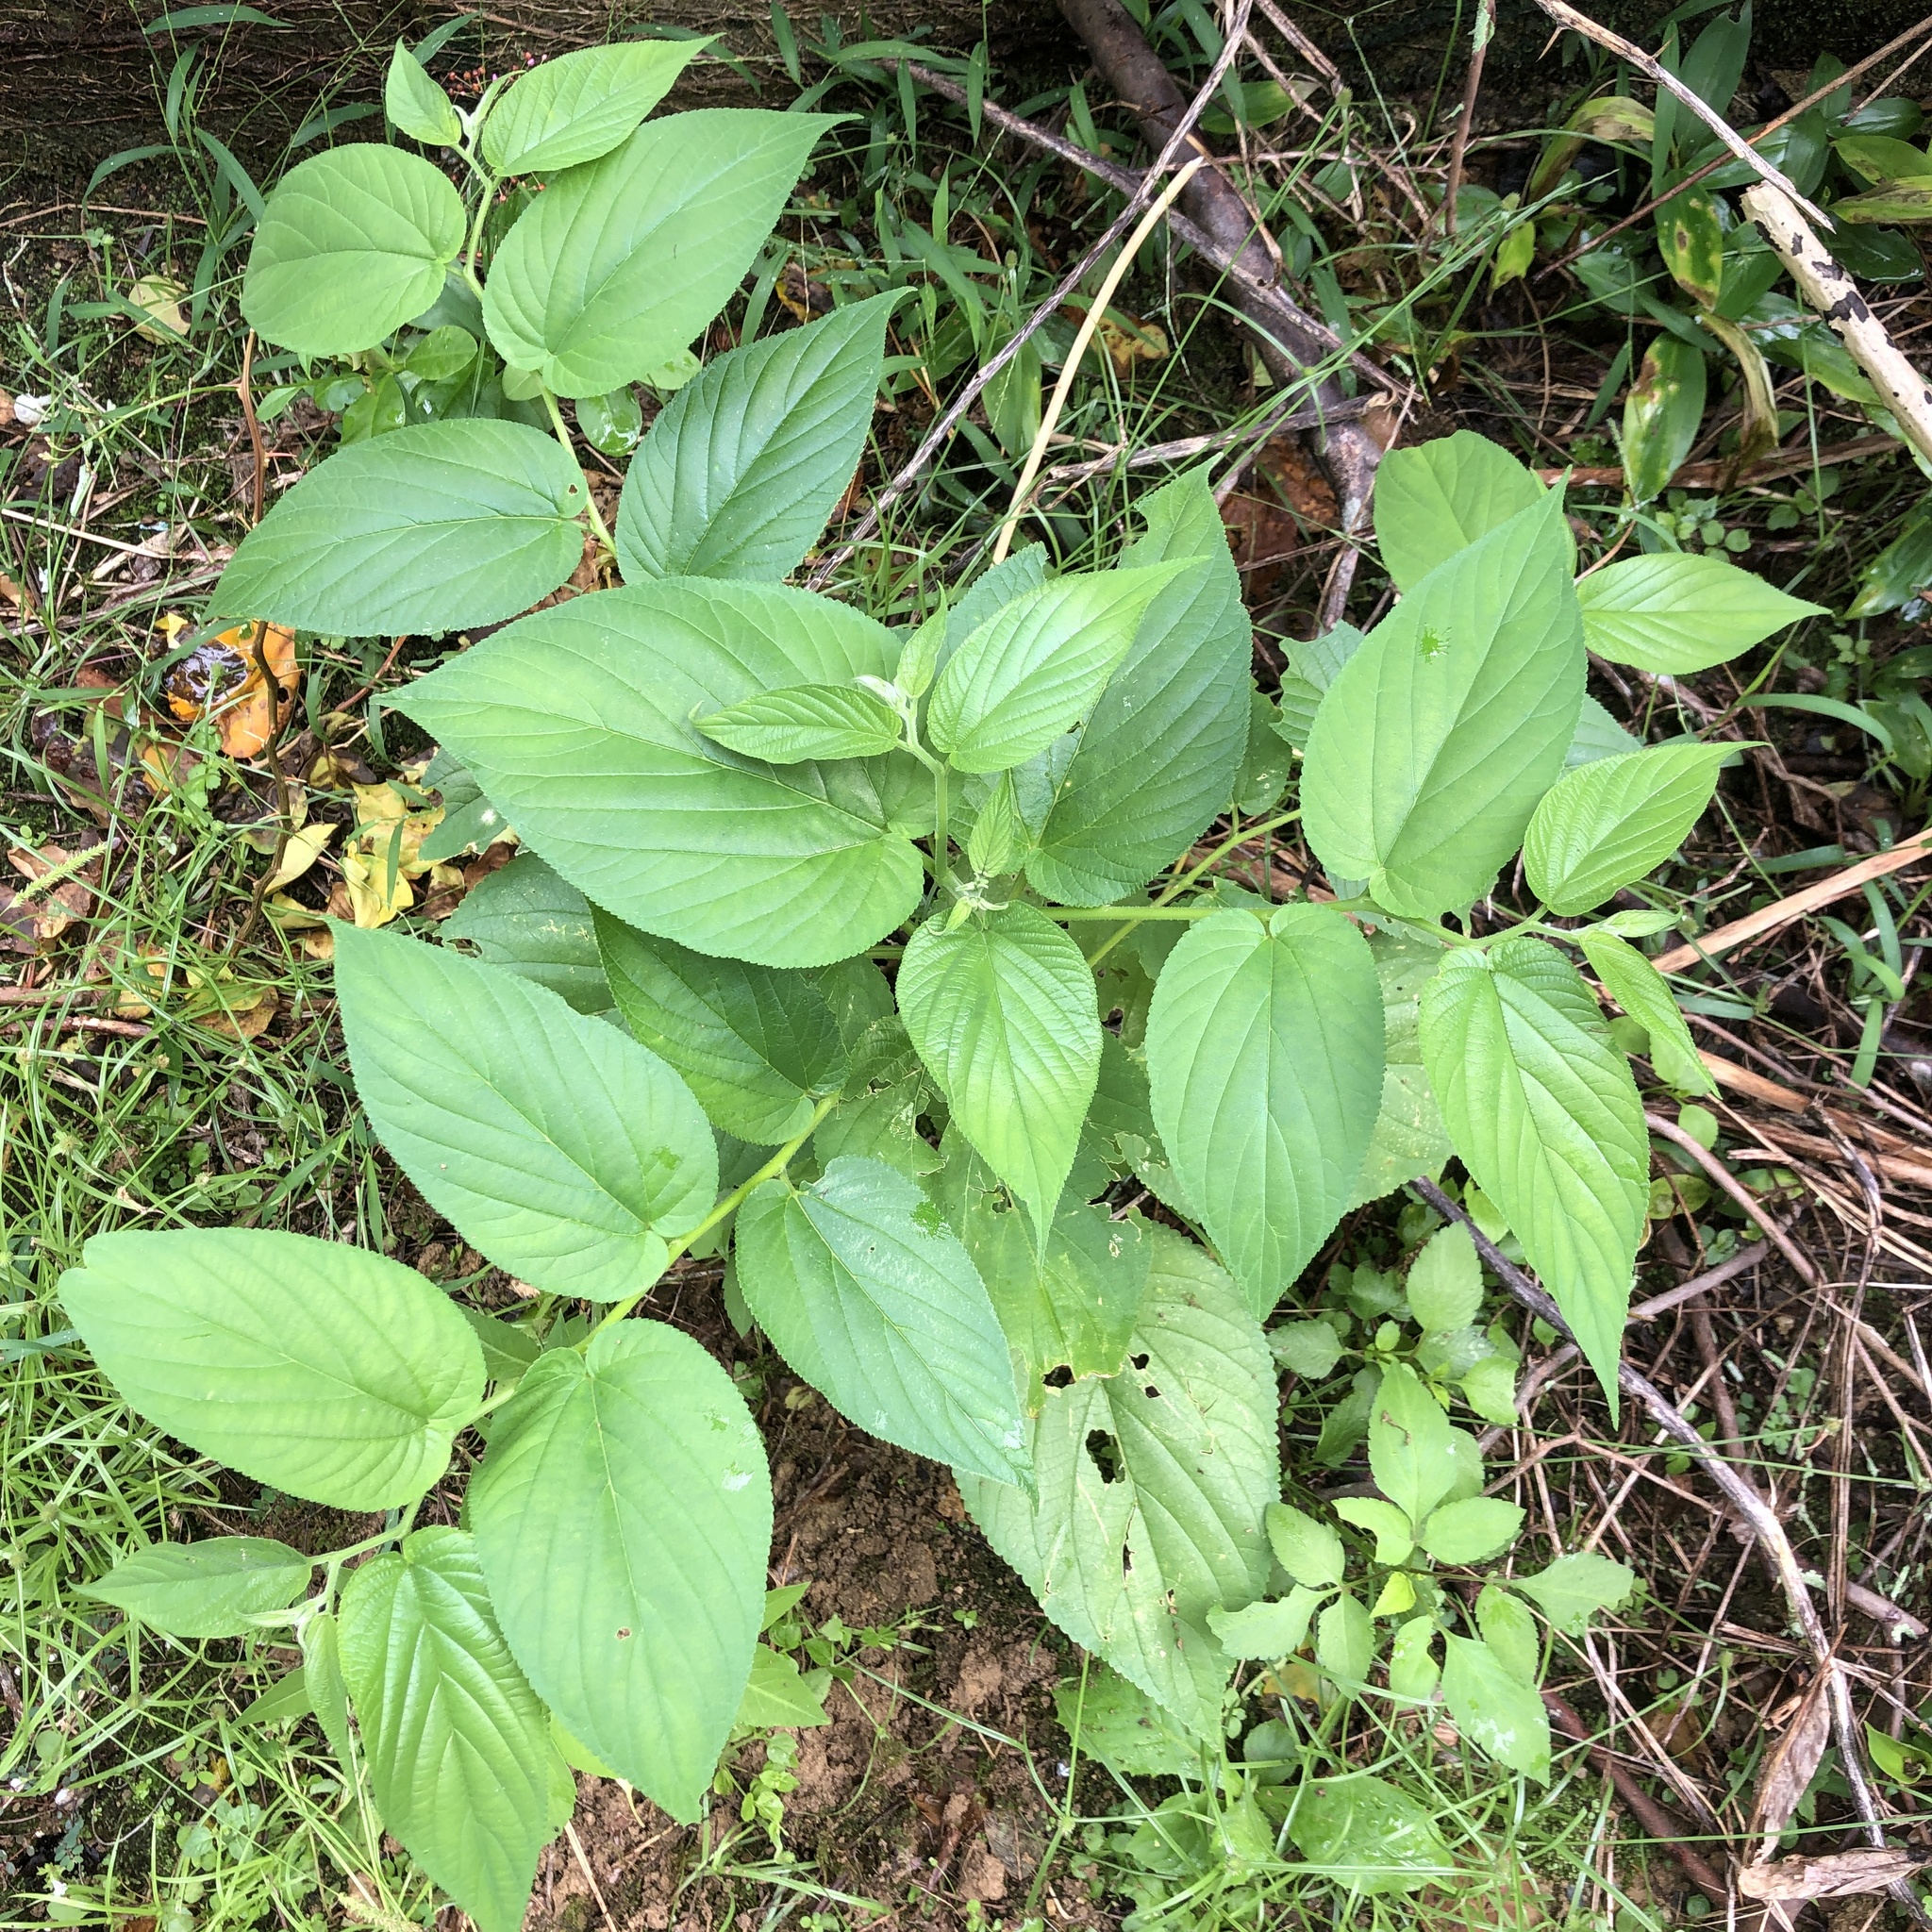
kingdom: Plantae
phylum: Tracheophyta
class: Magnoliopsida
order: Rosales
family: Cannabaceae
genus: Trema
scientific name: Trema orientale
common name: Indian charcoal tree
